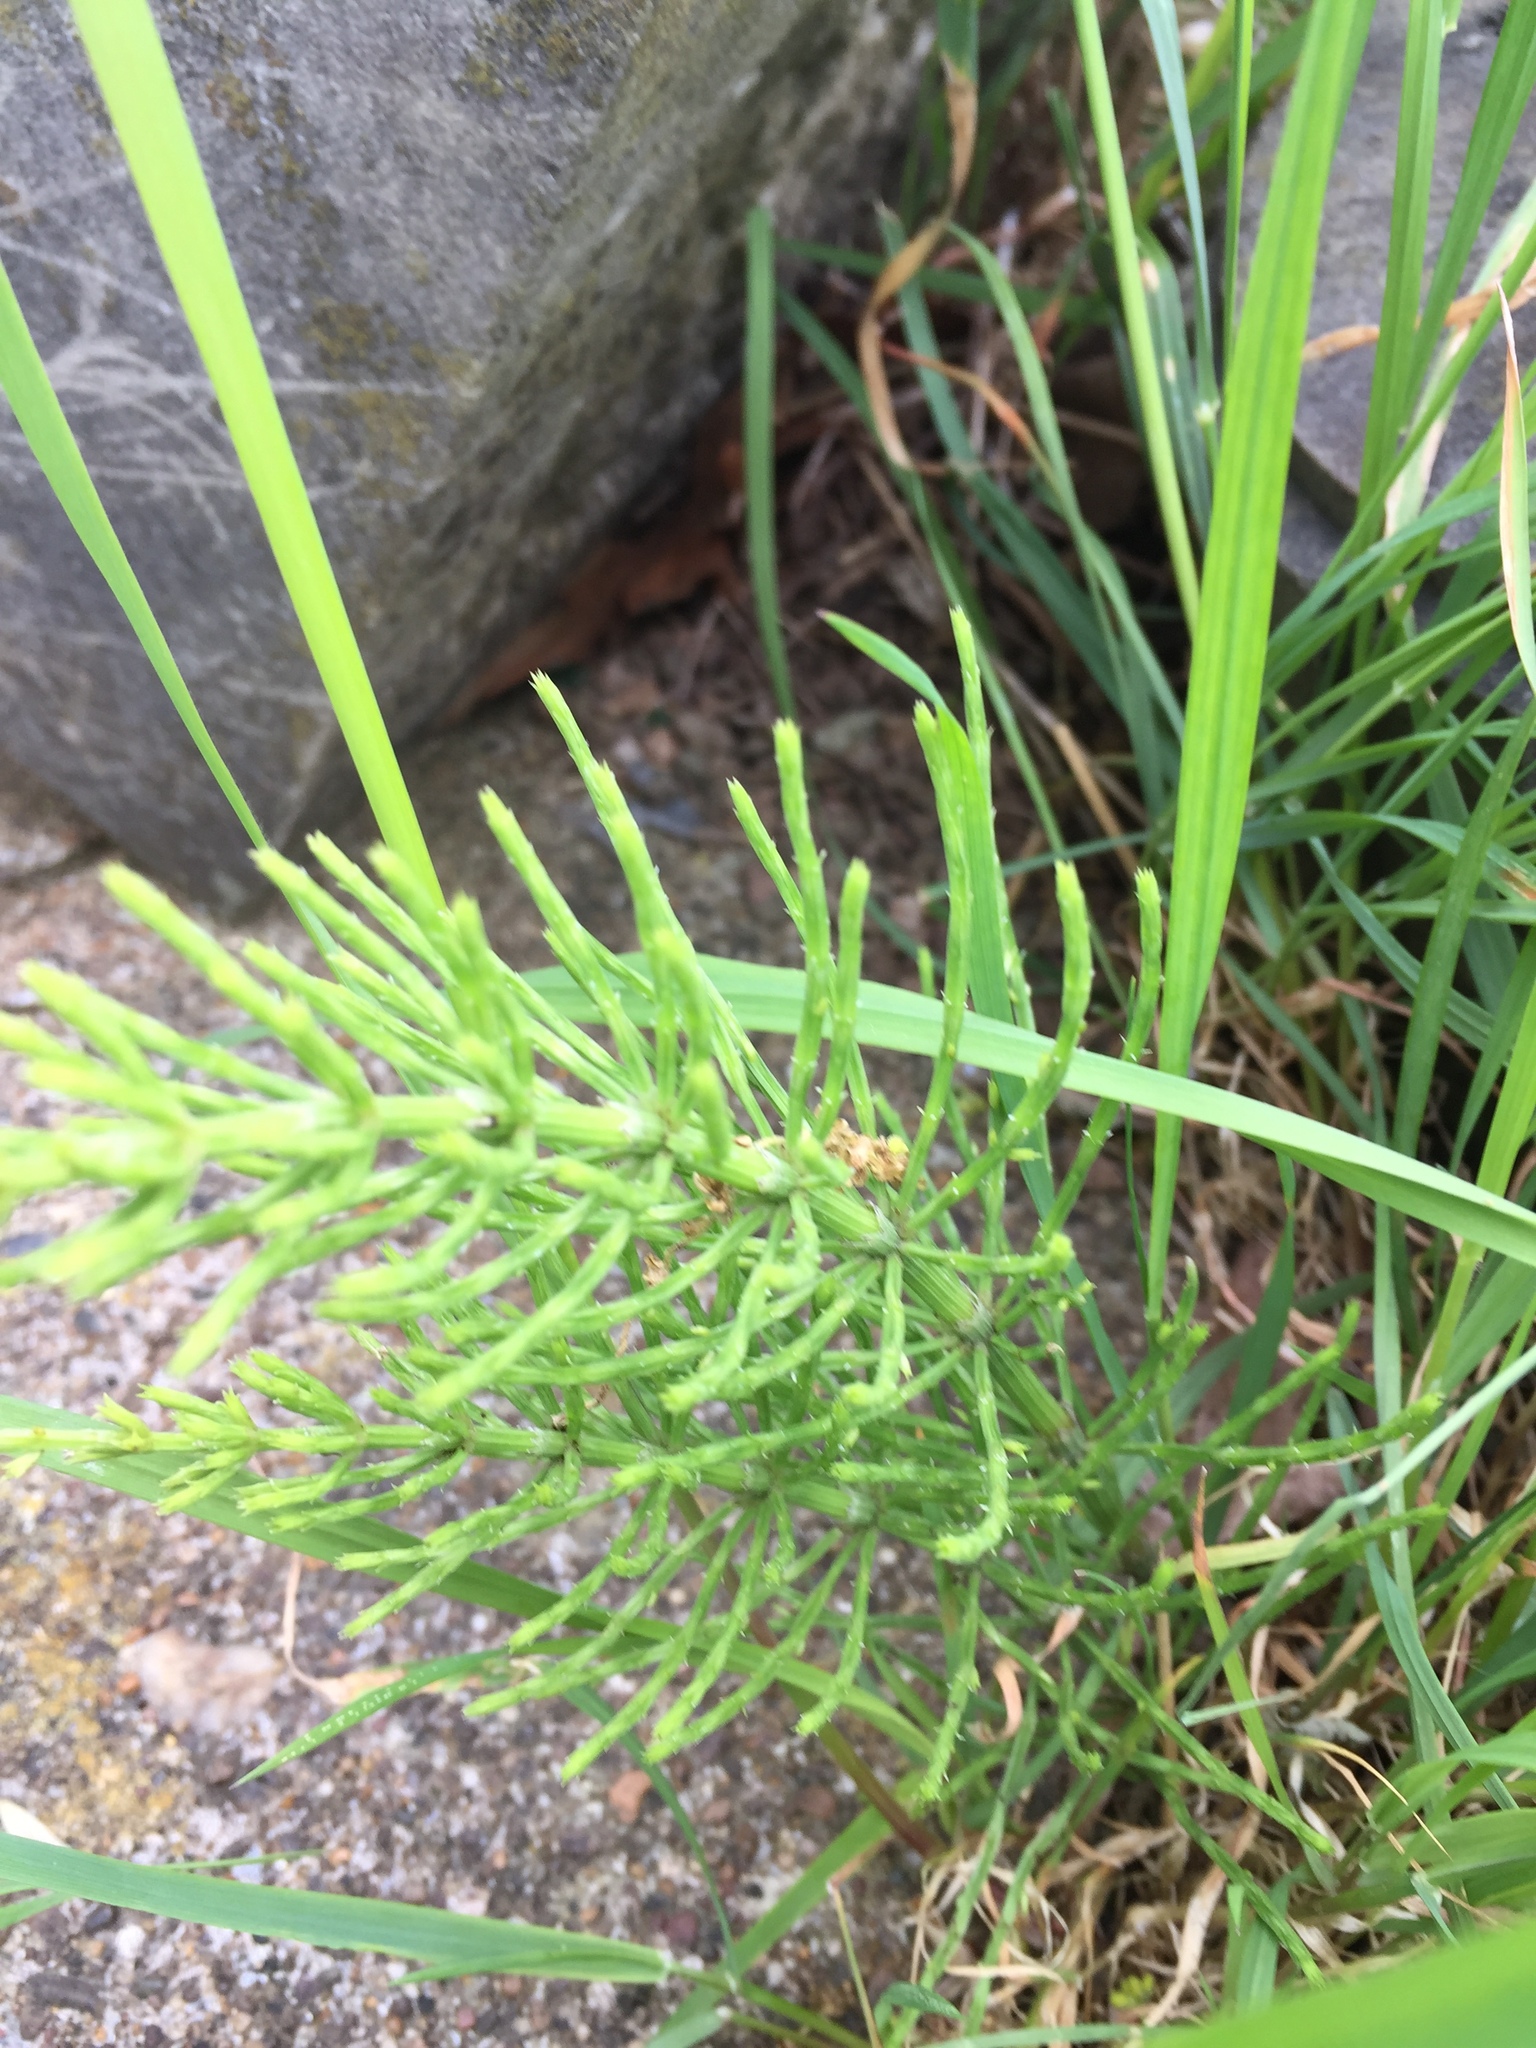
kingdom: Plantae
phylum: Tracheophyta
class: Polypodiopsida
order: Equisetales
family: Equisetaceae
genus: Equisetum
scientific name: Equisetum arvense
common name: Field horsetail
